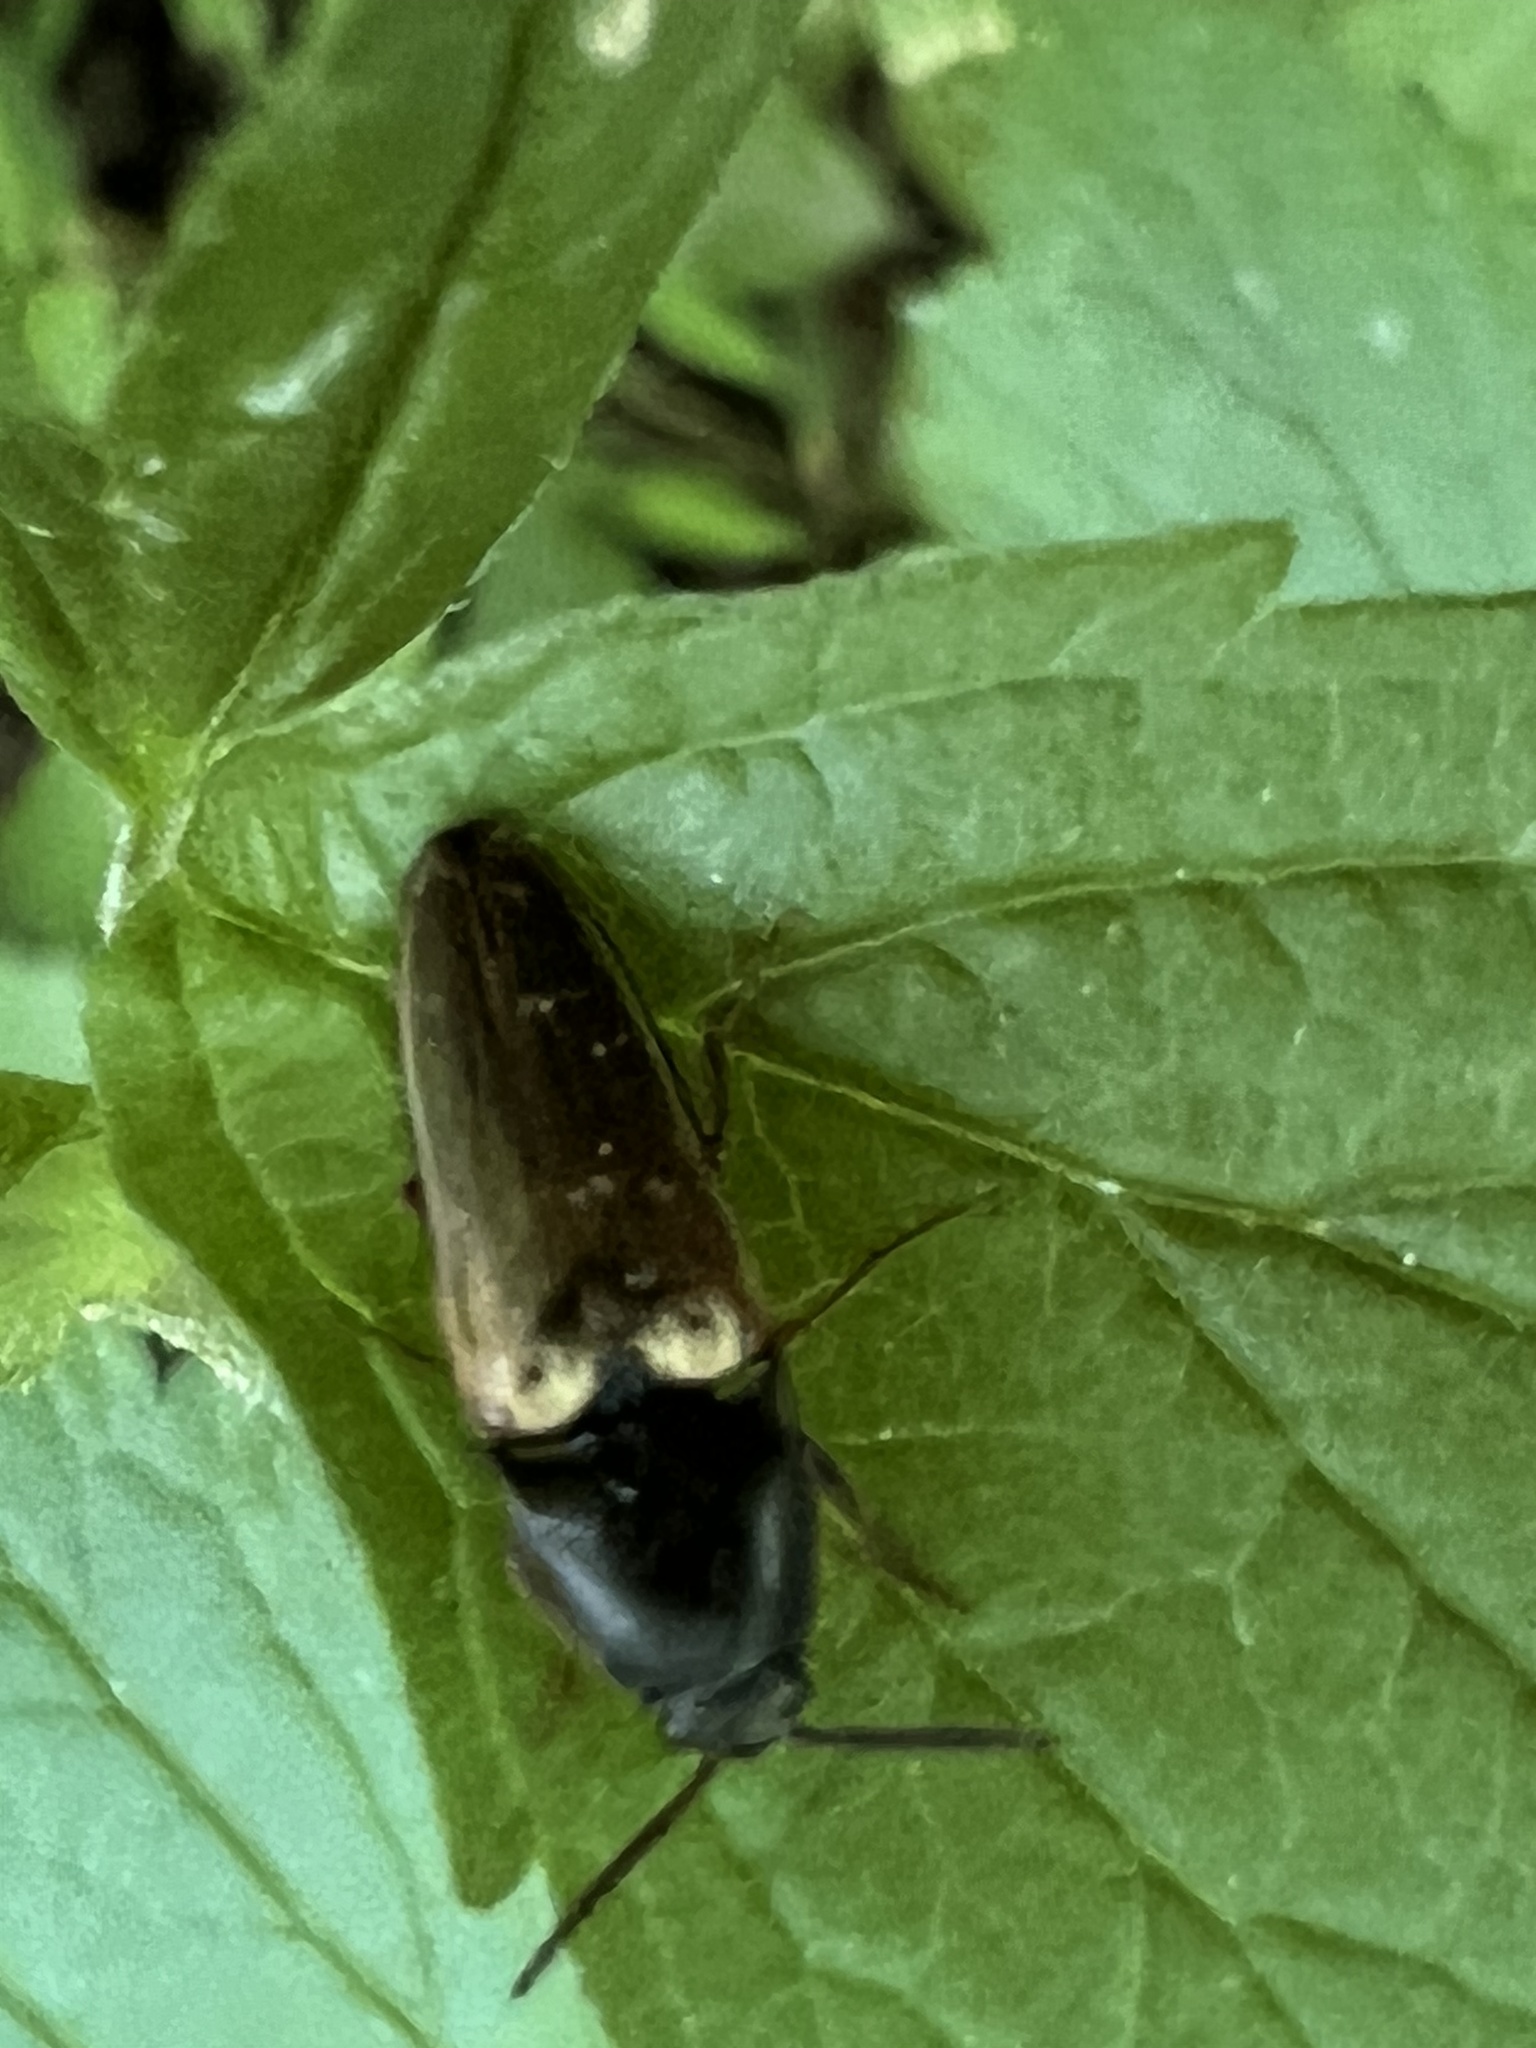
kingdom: Animalia
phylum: Arthropoda
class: Insecta
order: Coleoptera
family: Elateridae
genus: Ampedus
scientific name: Ampedus nigricollis
